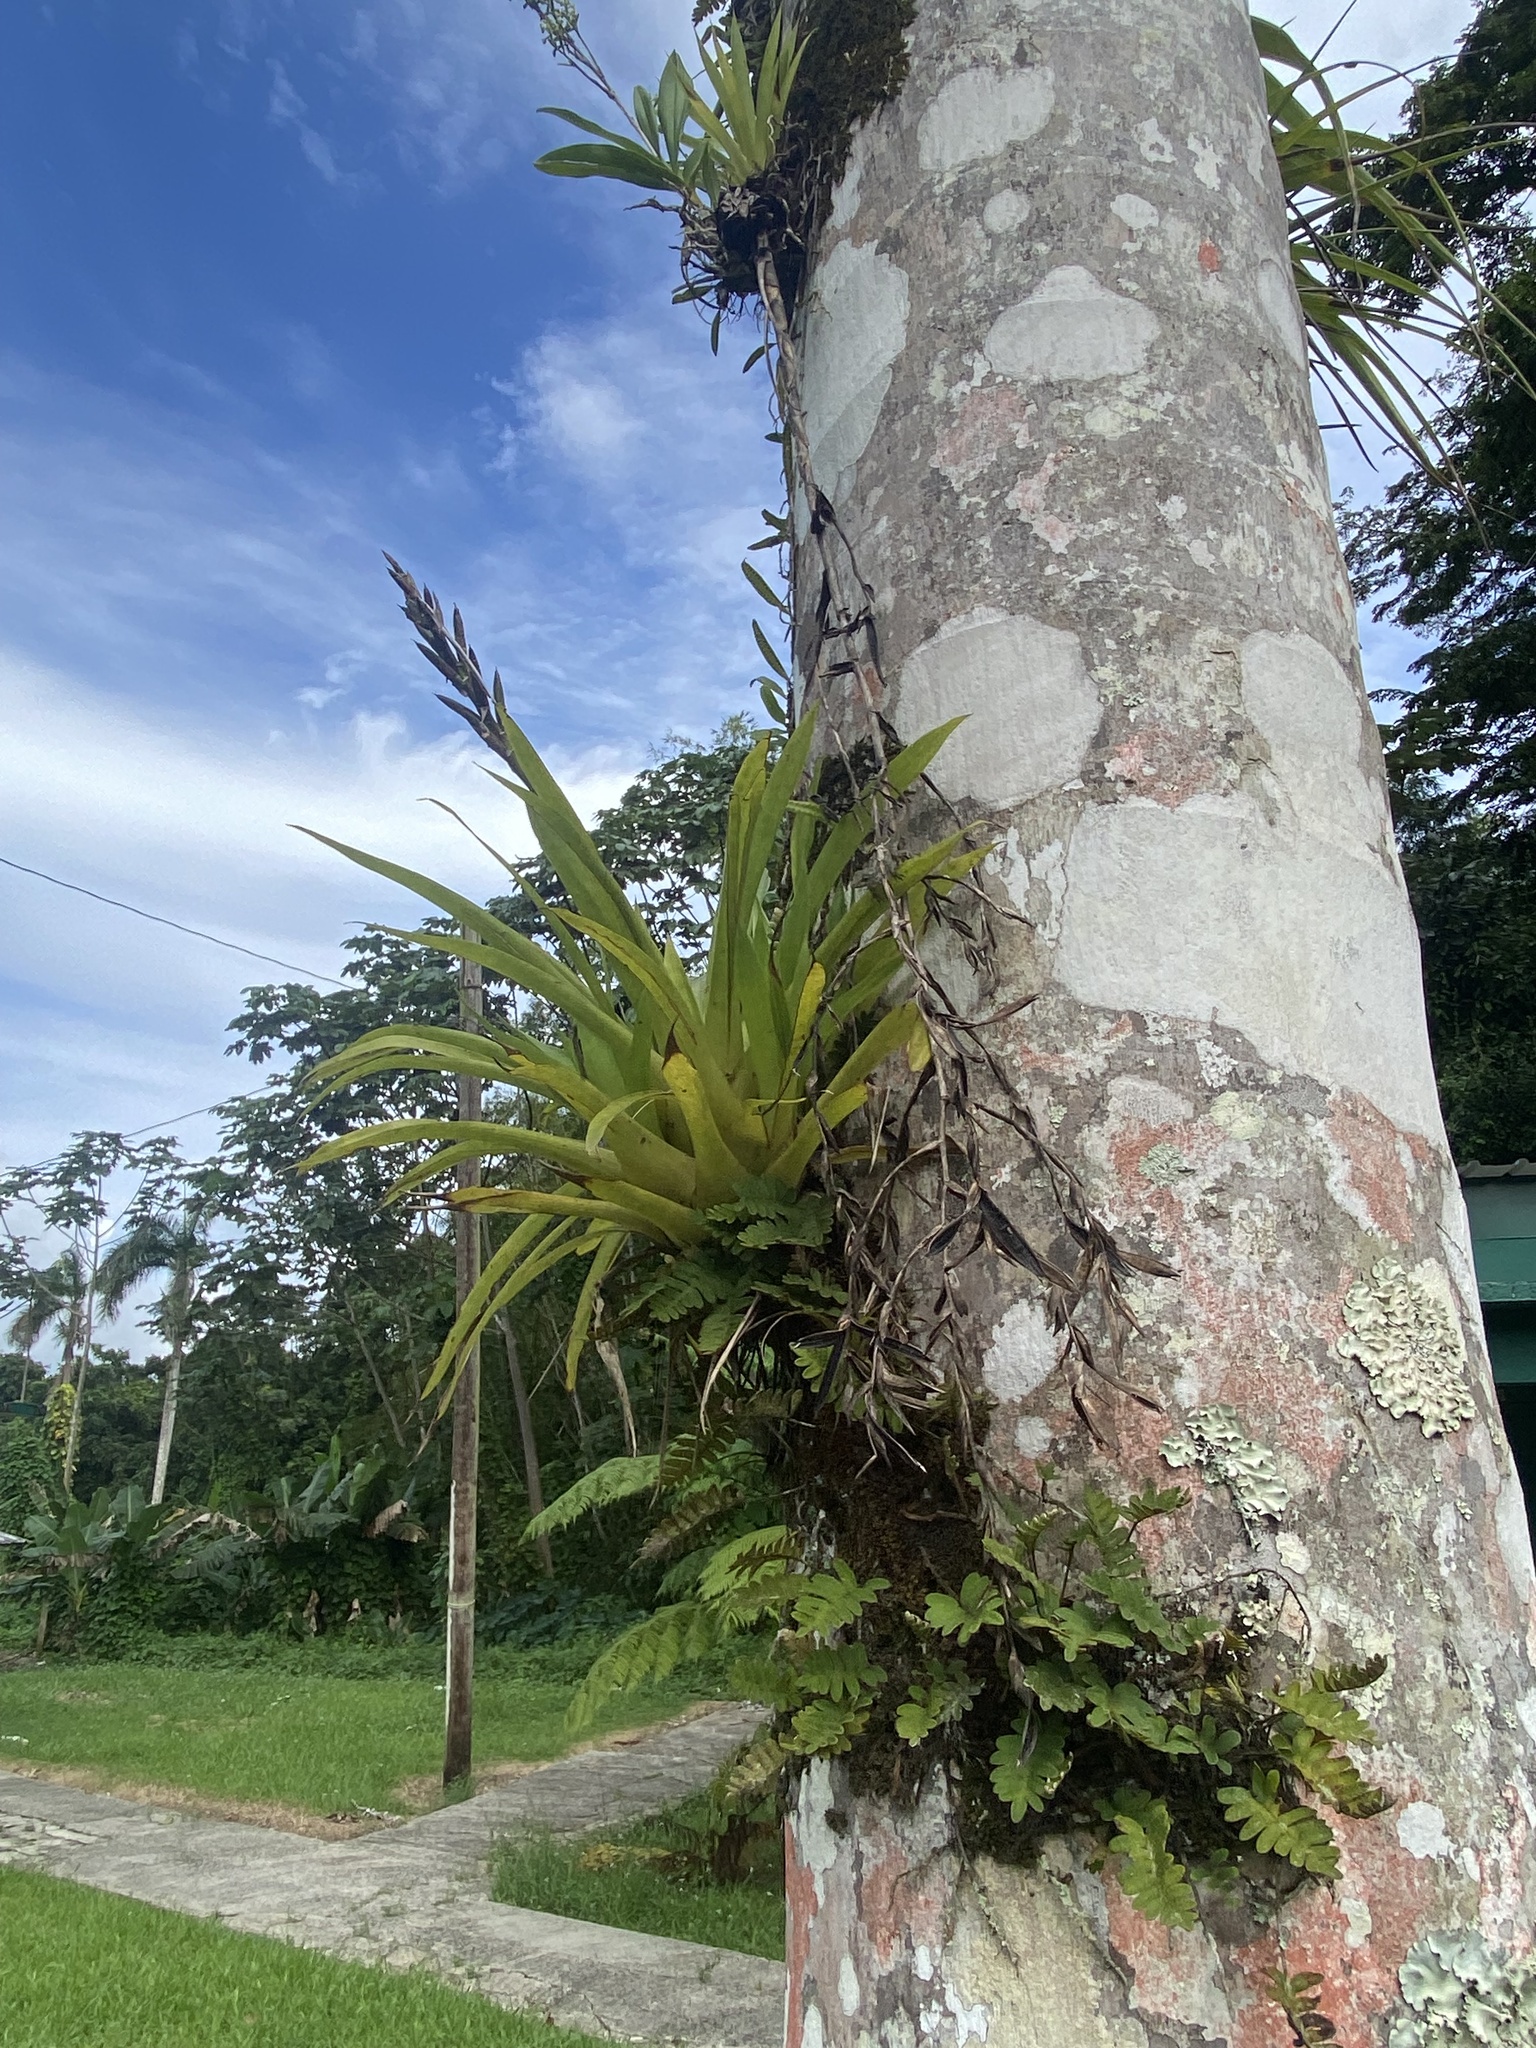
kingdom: Plantae
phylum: Tracheophyta
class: Liliopsida
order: Asparagales
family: Orchidaceae
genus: Polystachya
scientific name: Polystachya concreta
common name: Greater yellowspike orchid
